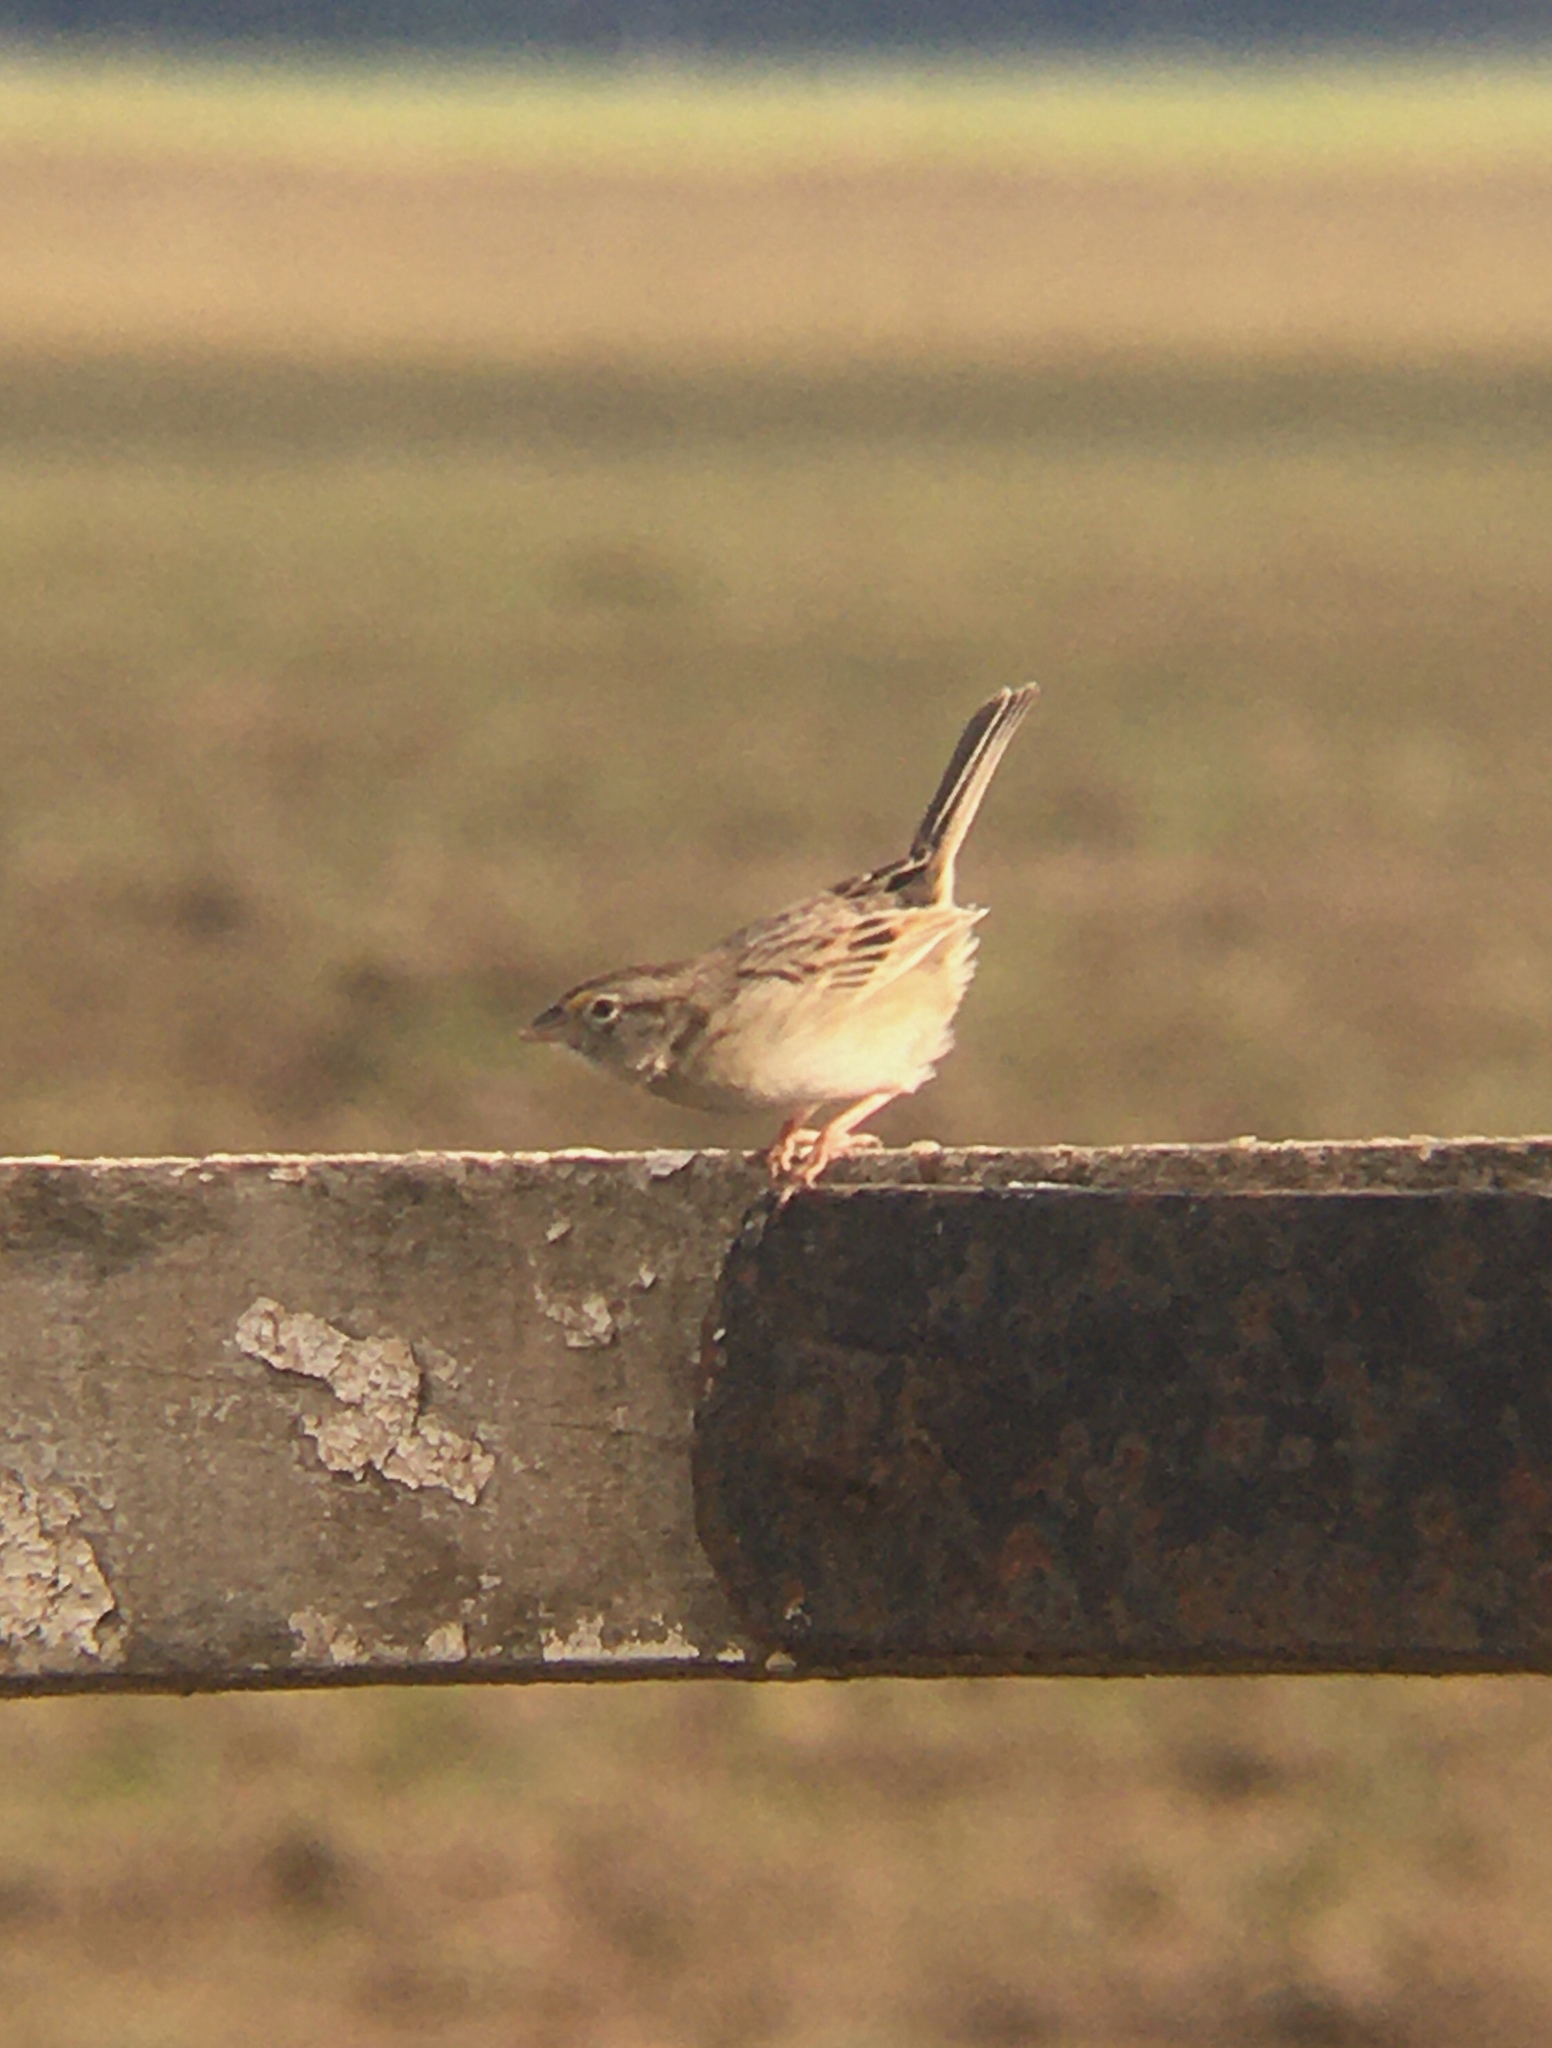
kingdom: Animalia
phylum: Chordata
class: Aves
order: Passeriformes
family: Passerellidae
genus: Ammodramus
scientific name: Ammodramus humeralis
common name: Grassland sparrow
